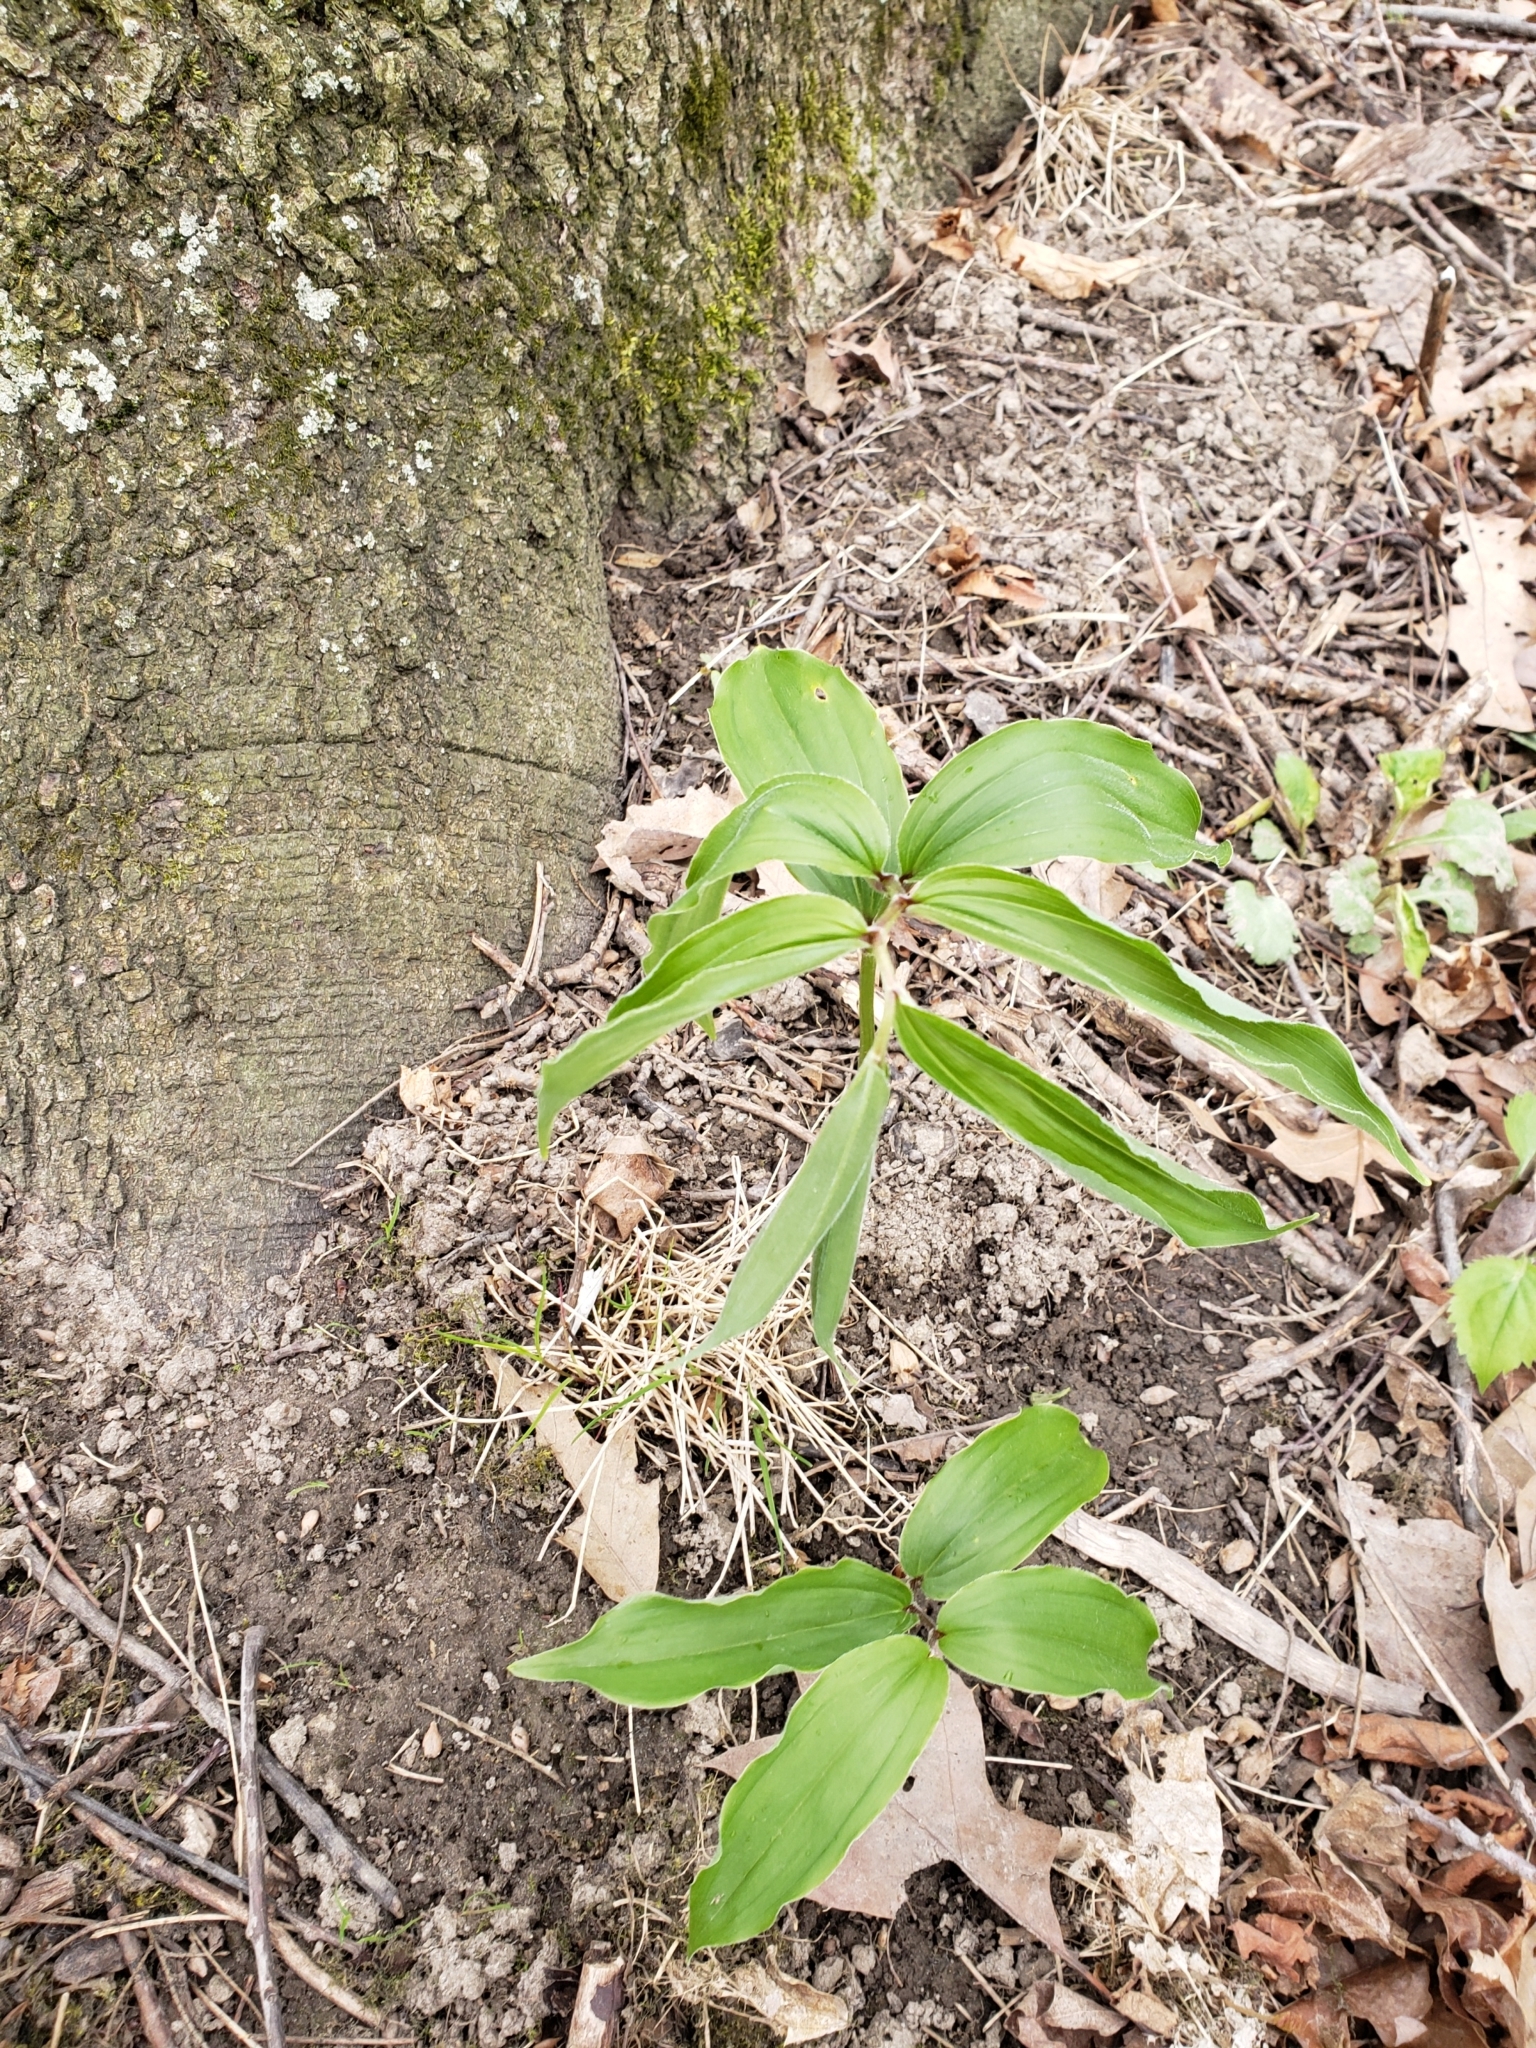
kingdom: Plantae
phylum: Tracheophyta
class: Liliopsida
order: Asparagales
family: Asparagaceae
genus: Maianthemum
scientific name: Maianthemum racemosum
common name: False spikenard
